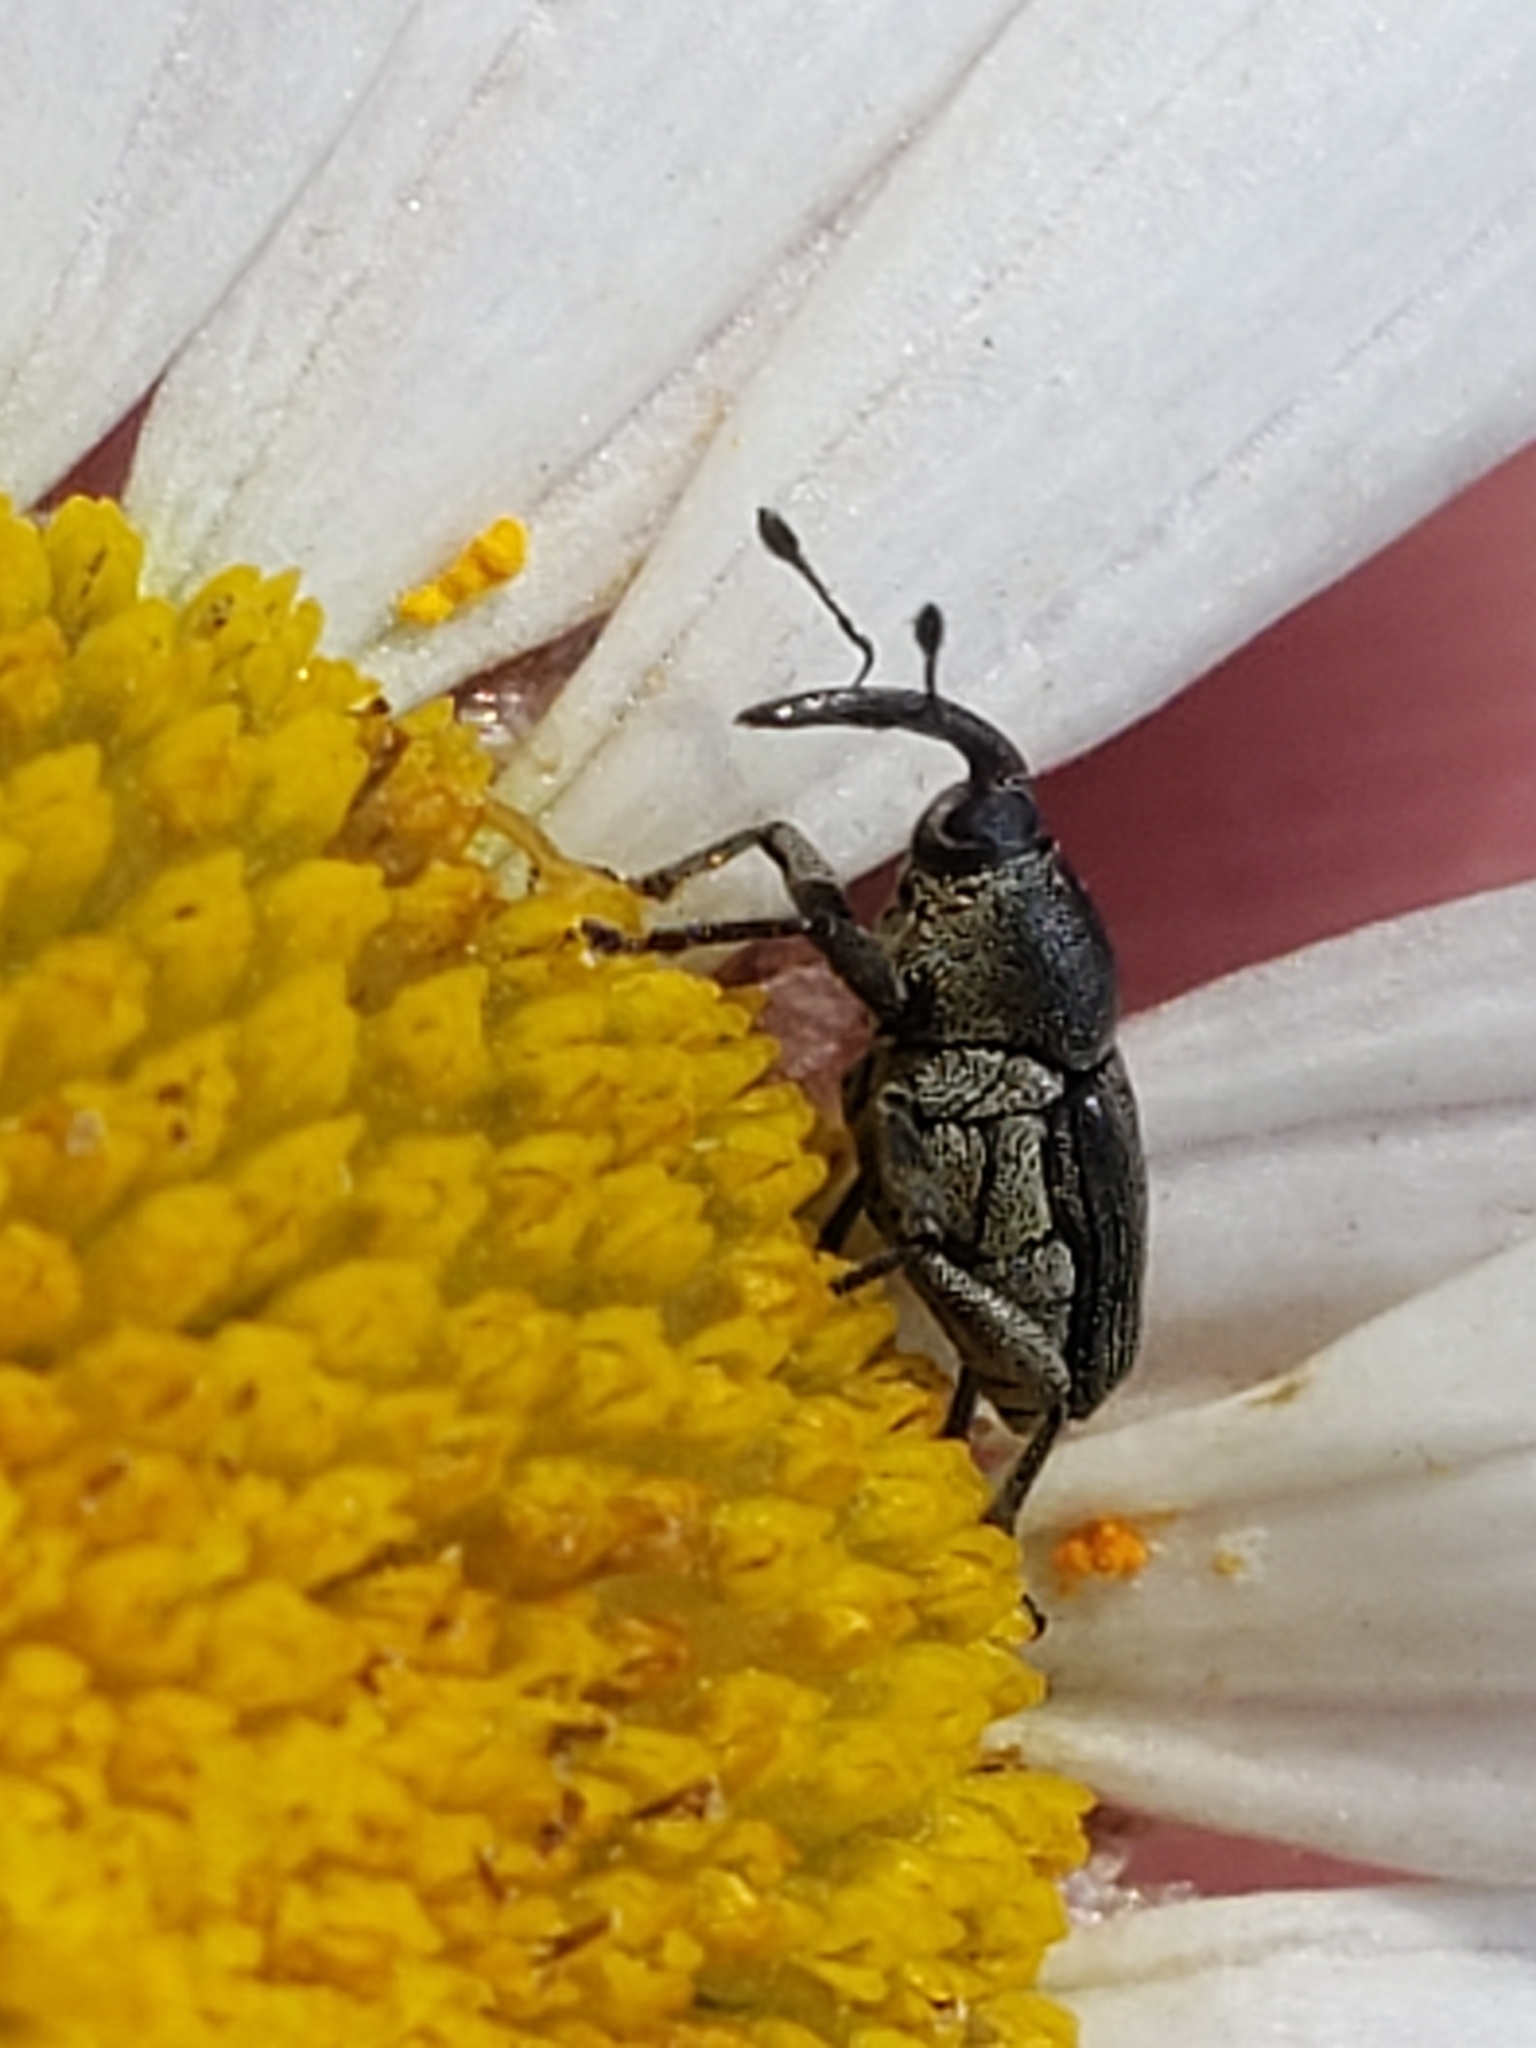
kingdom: Animalia
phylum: Arthropoda
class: Insecta
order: Coleoptera
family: Curculionidae
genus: Odontocorynus
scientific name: Odontocorynus salebrosus
